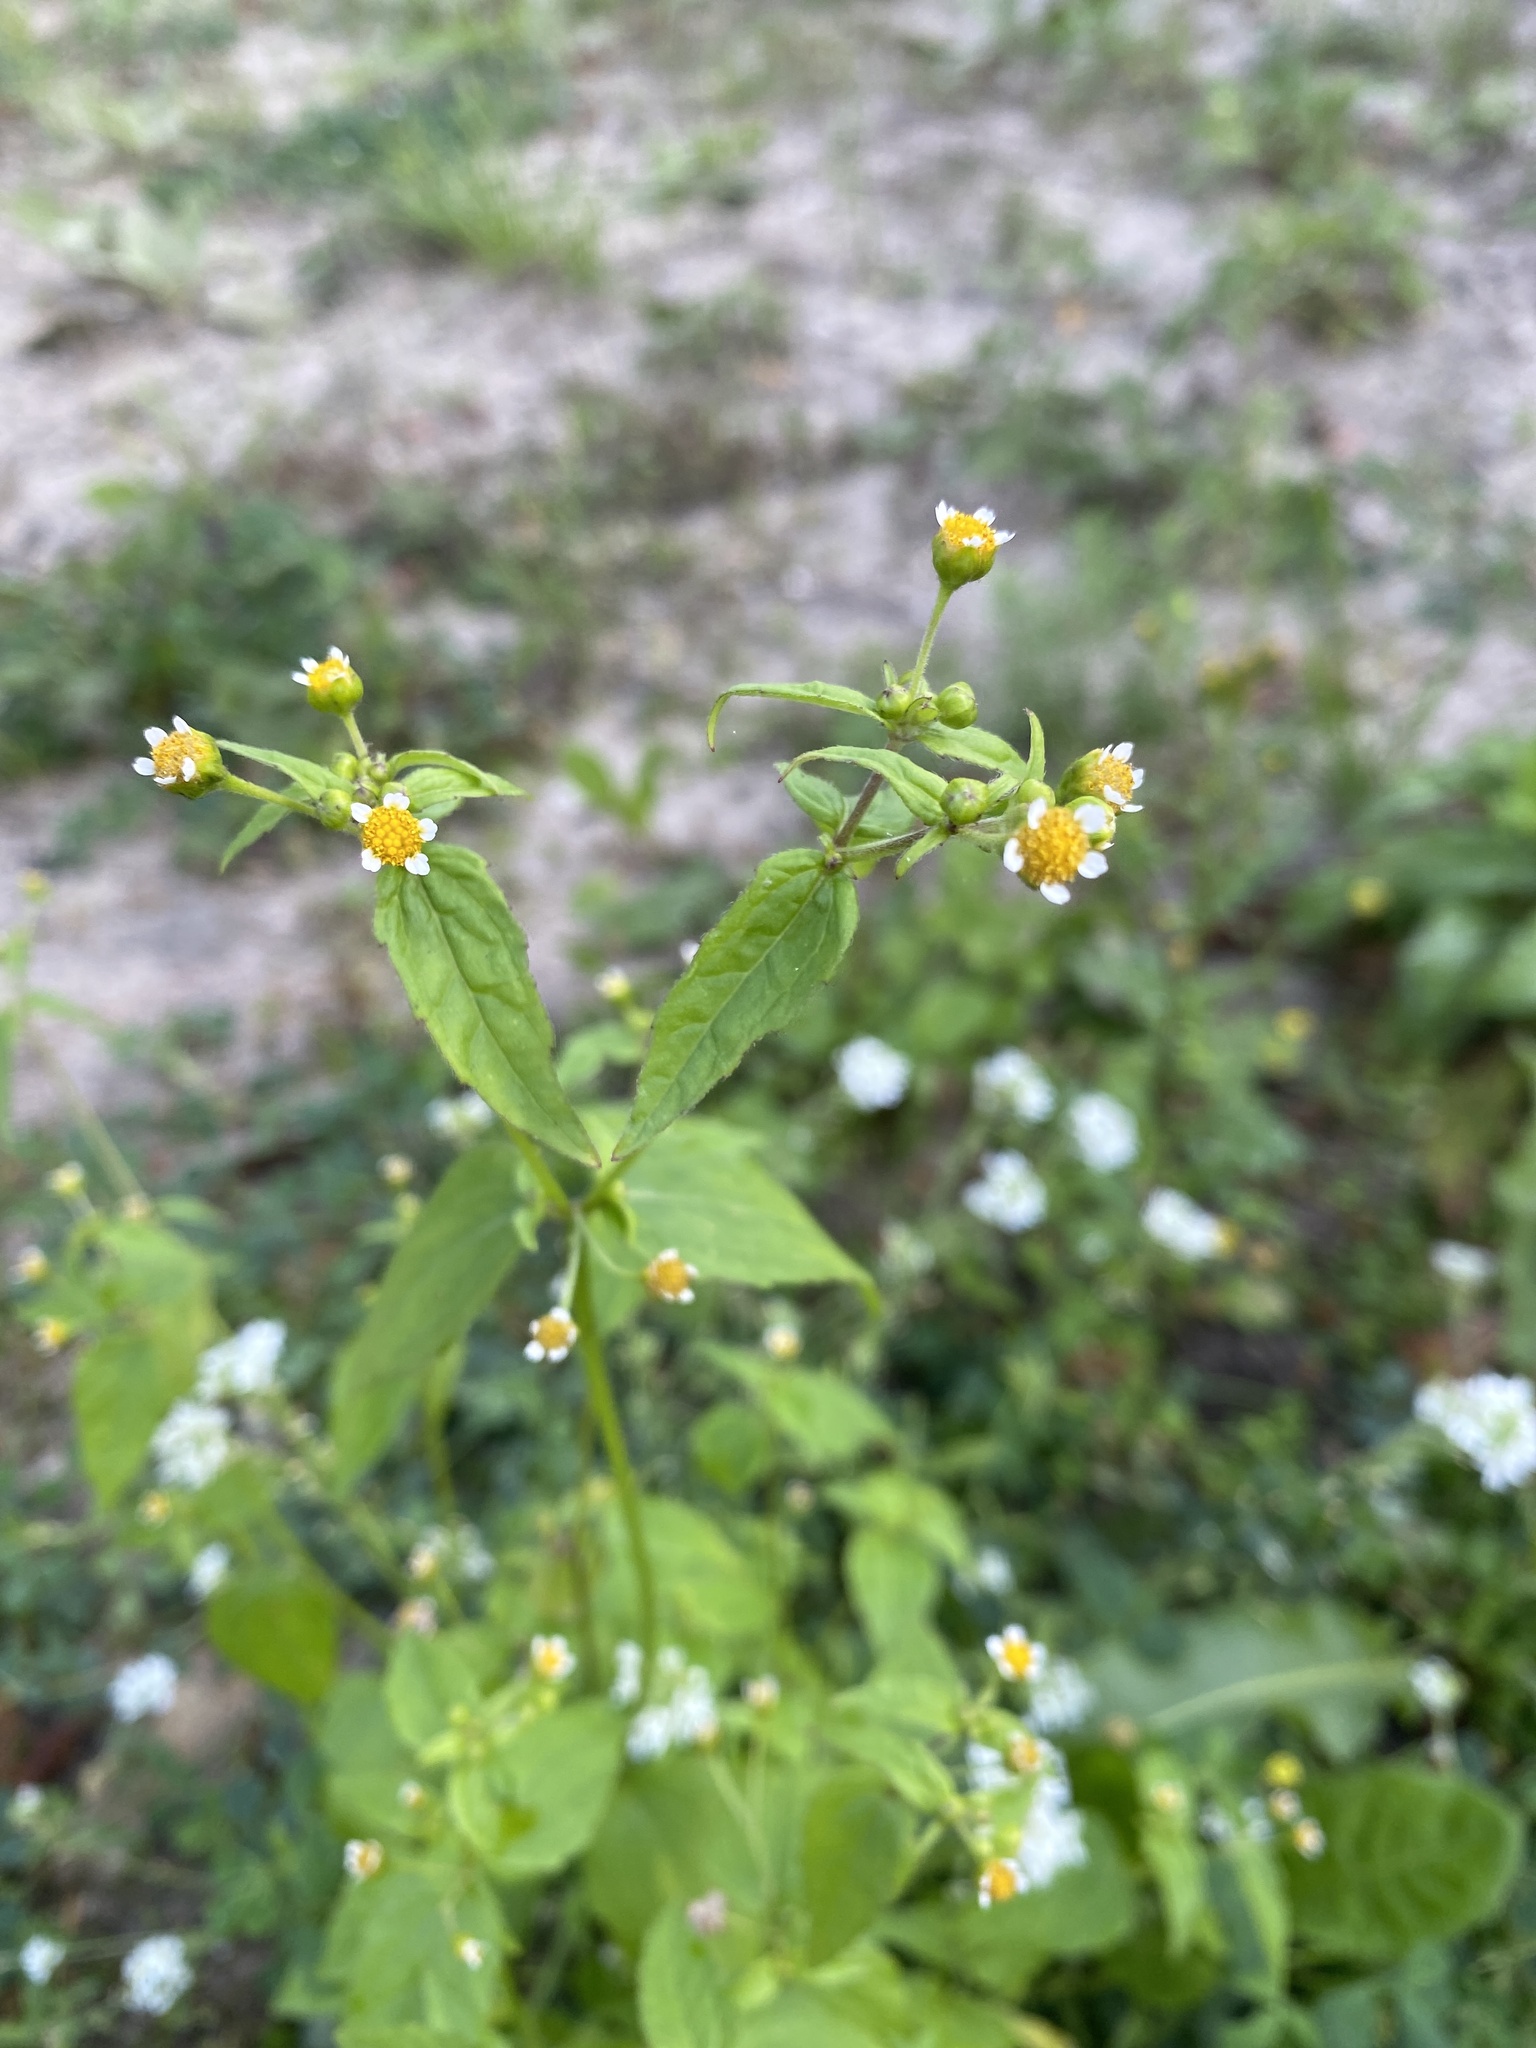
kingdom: Plantae
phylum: Tracheophyta
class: Magnoliopsida
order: Asterales
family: Asteraceae
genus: Galinsoga
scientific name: Galinsoga parviflora
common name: Gallant soldier
